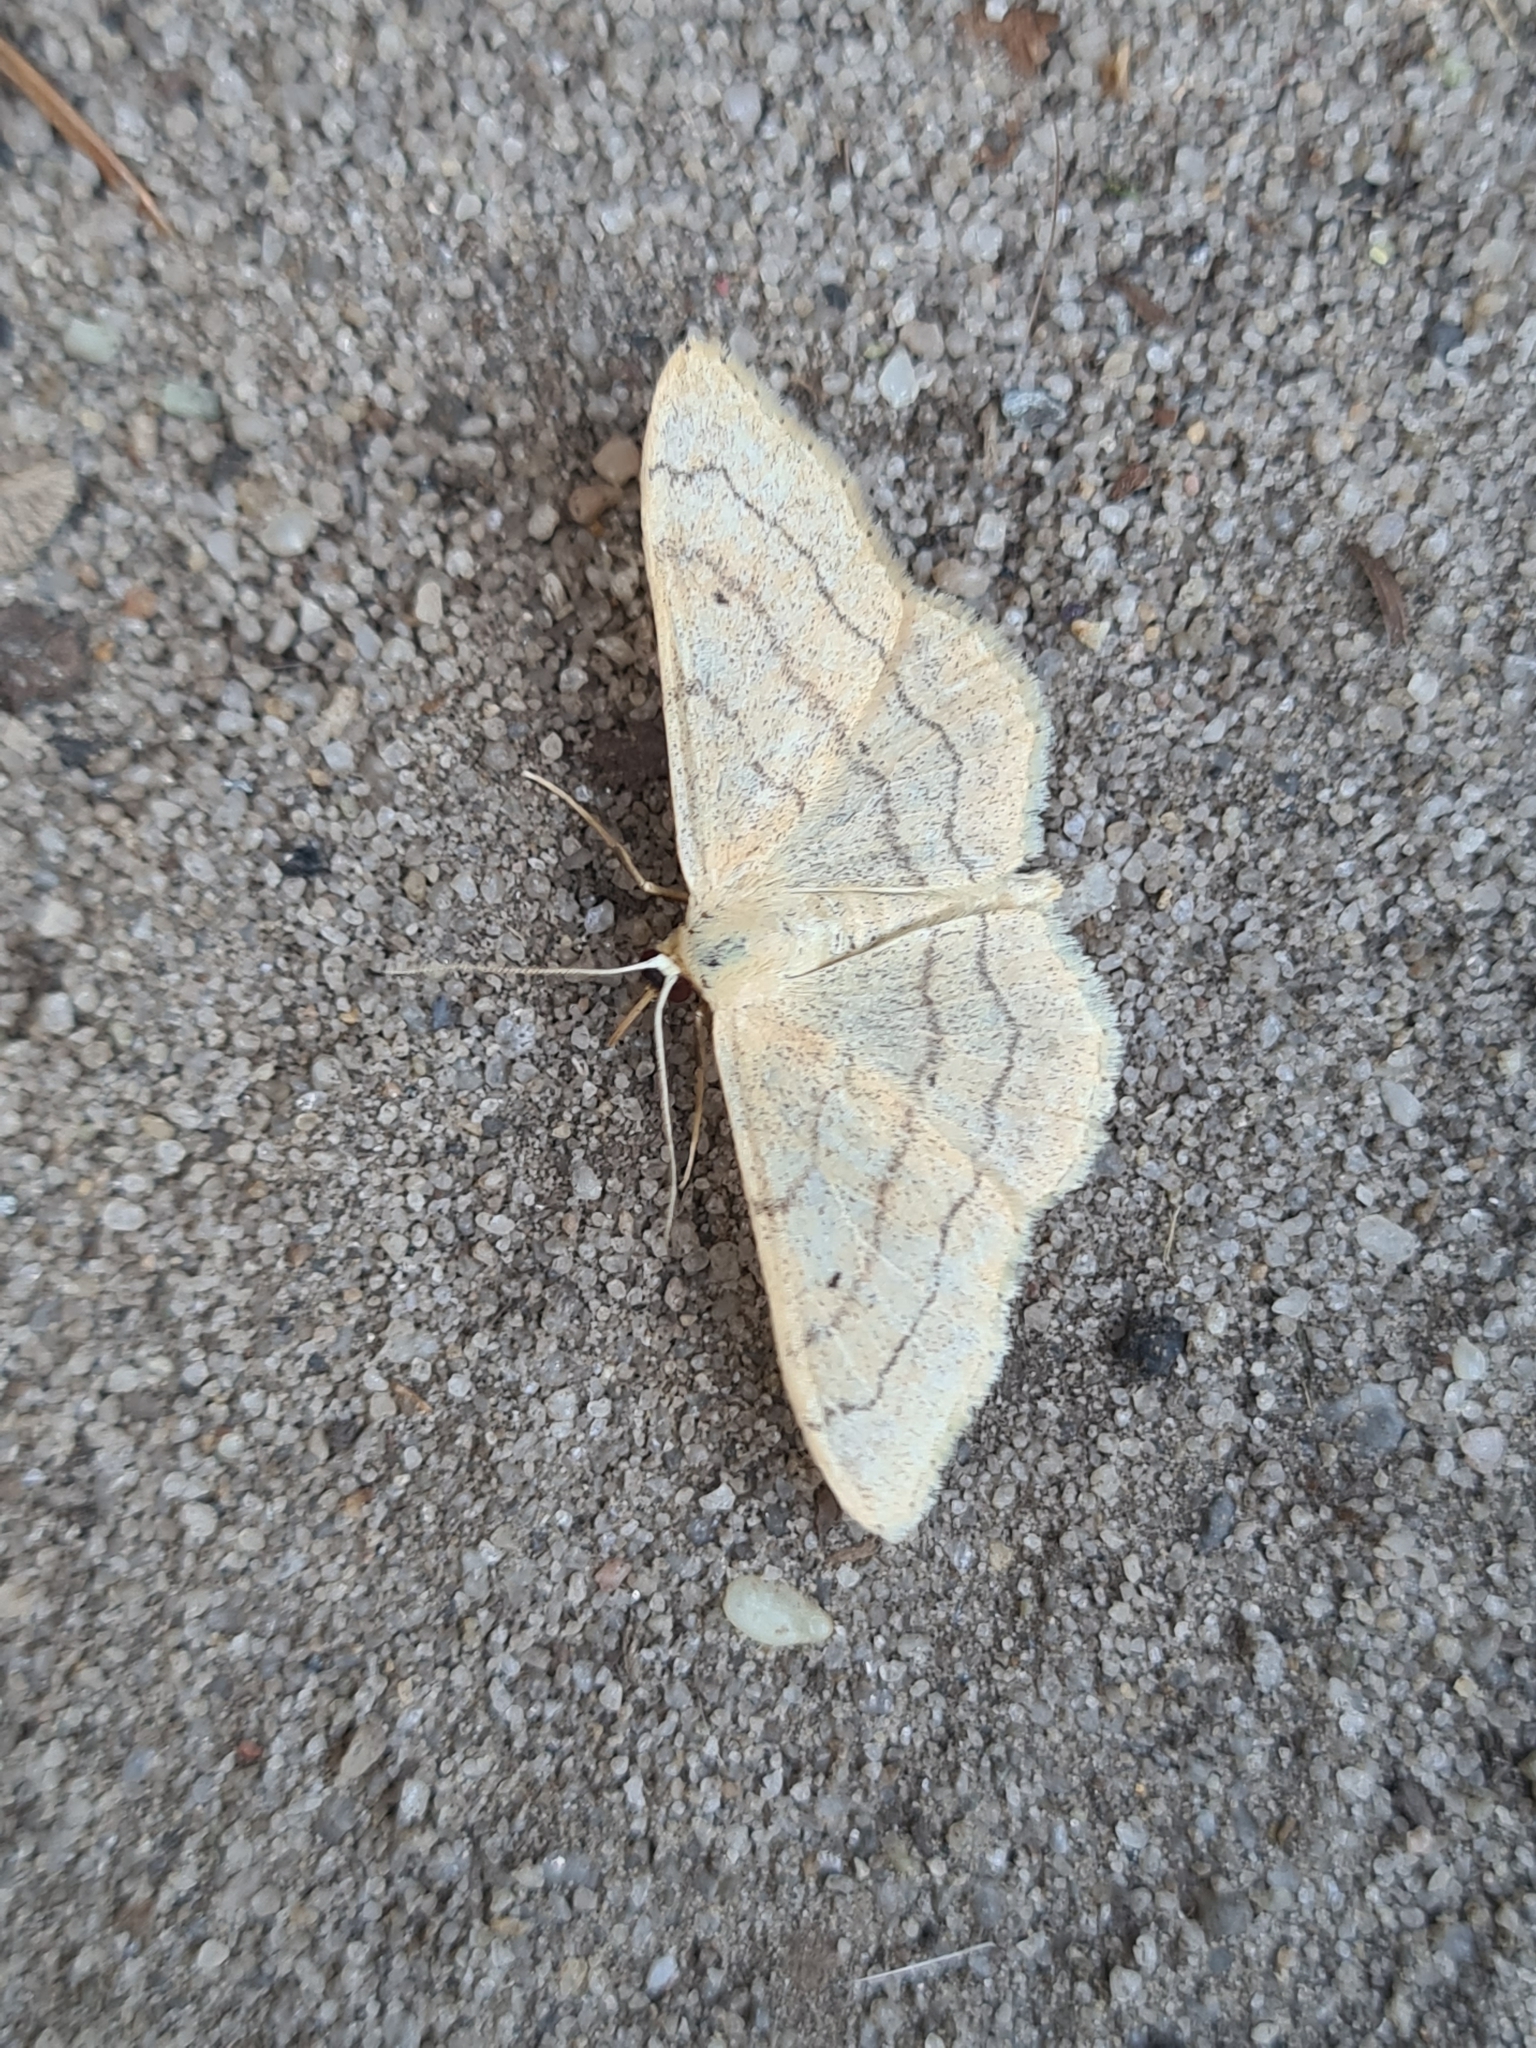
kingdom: Animalia
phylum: Arthropoda
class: Insecta
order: Lepidoptera
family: Geometridae
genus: Idaea
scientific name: Idaea aversata
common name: Riband wave
